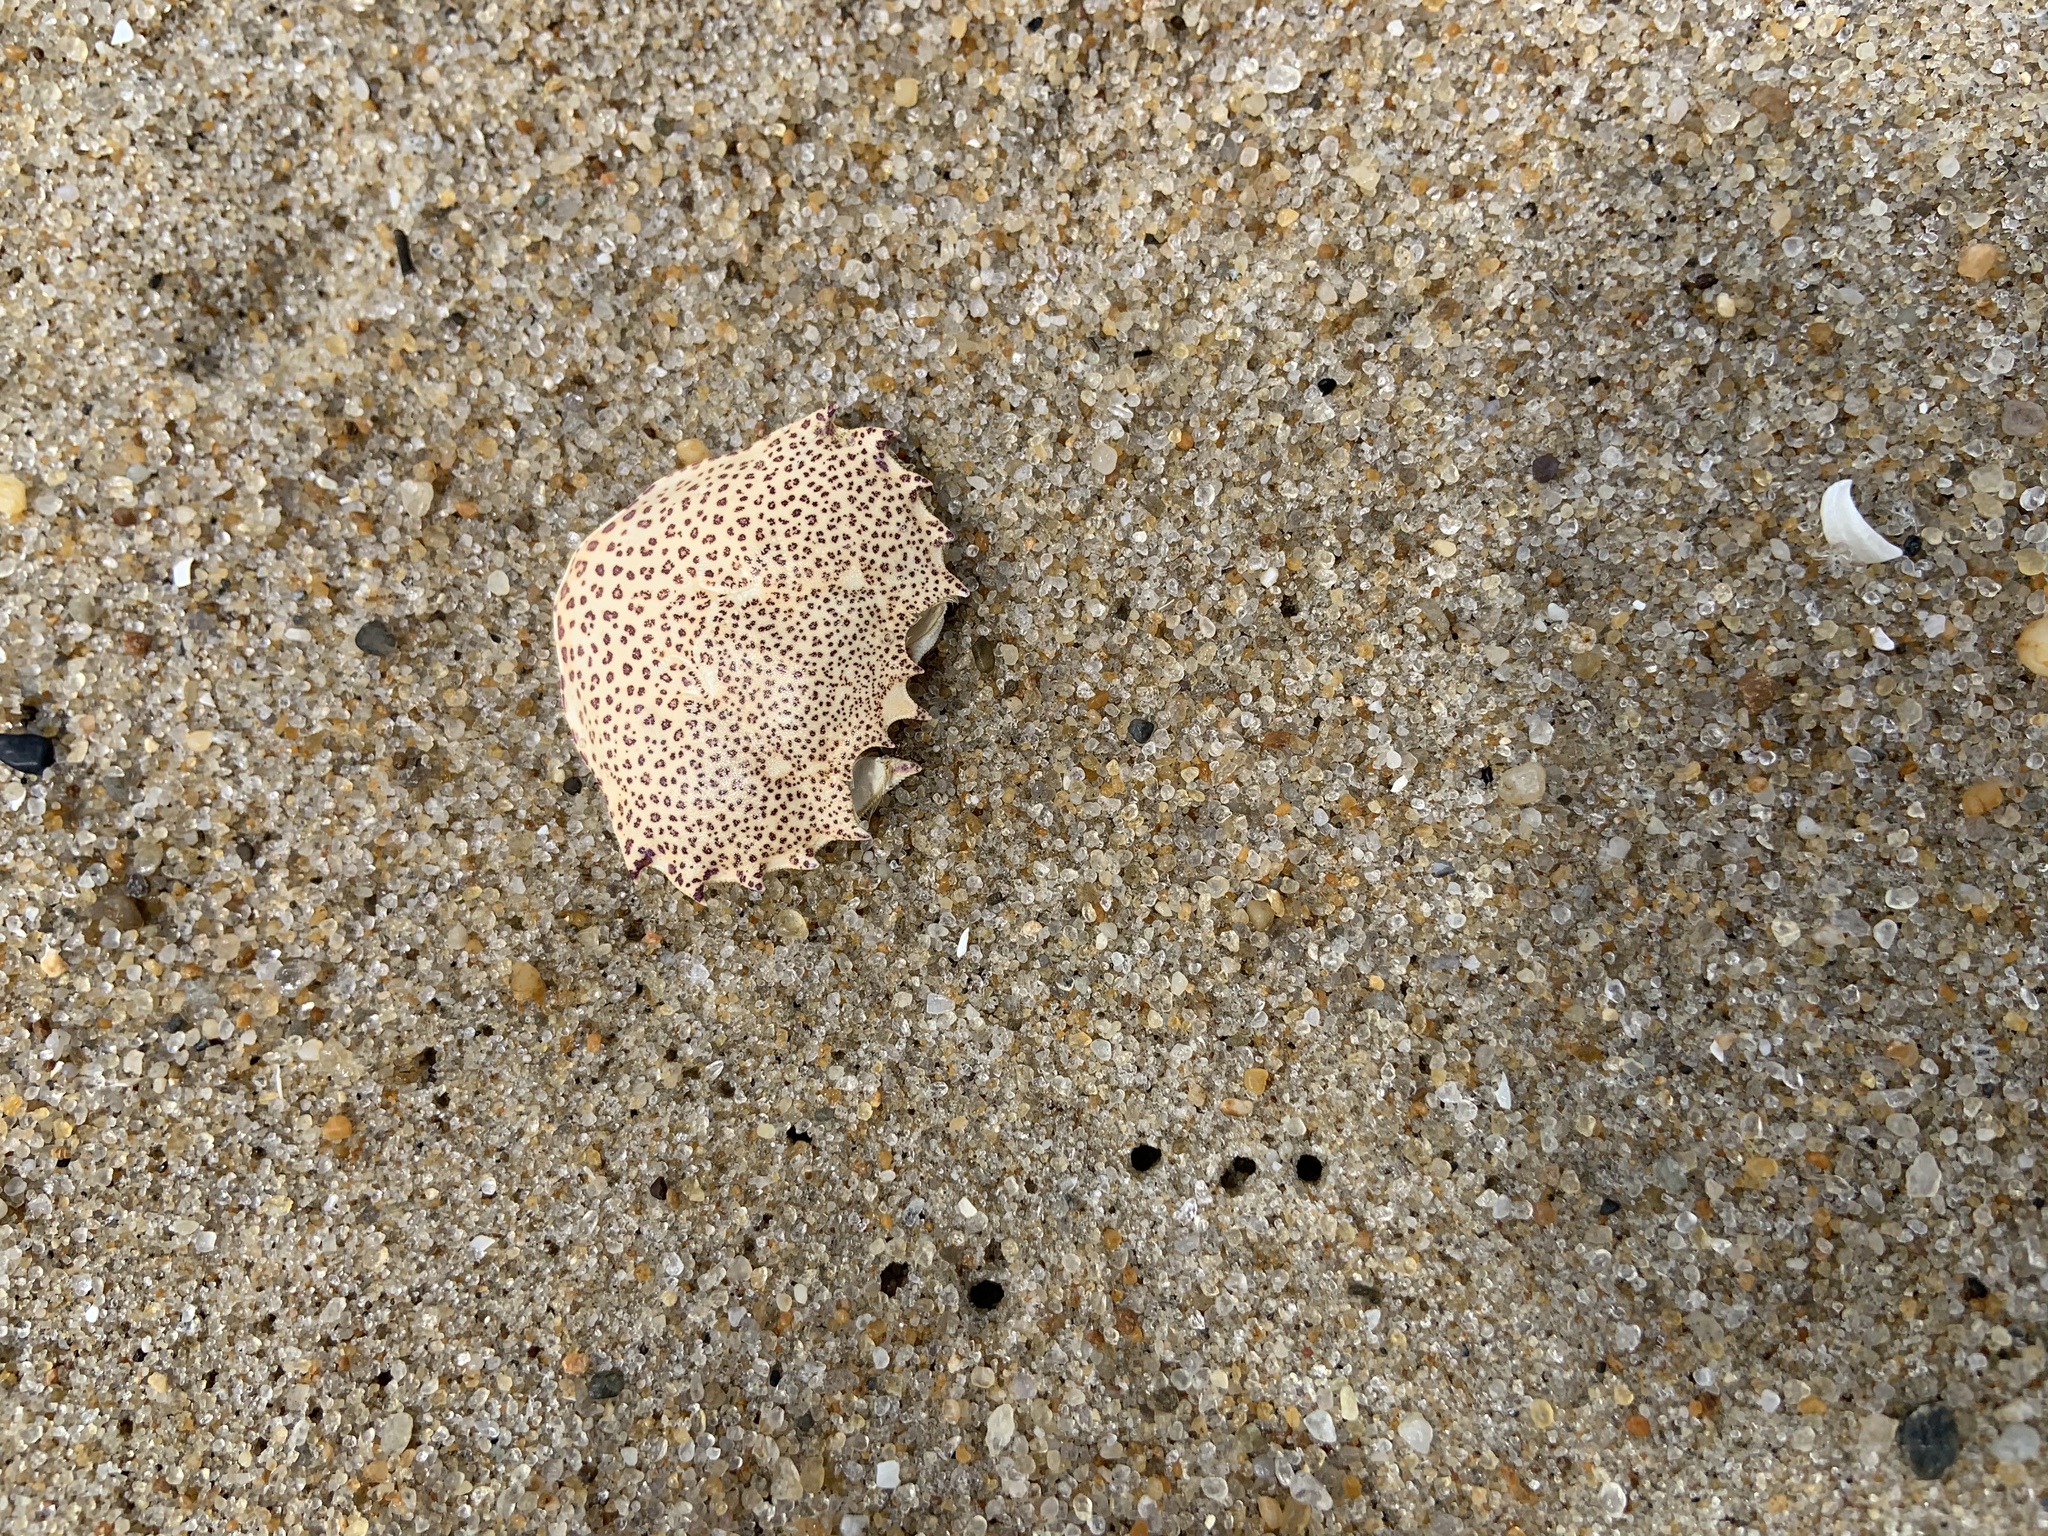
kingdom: Animalia
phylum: Arthropoda
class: Malacostraca
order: Decapoda
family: Ovalipidae
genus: Ovalipes
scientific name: Ovalipes ocellatus
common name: Lady crab
